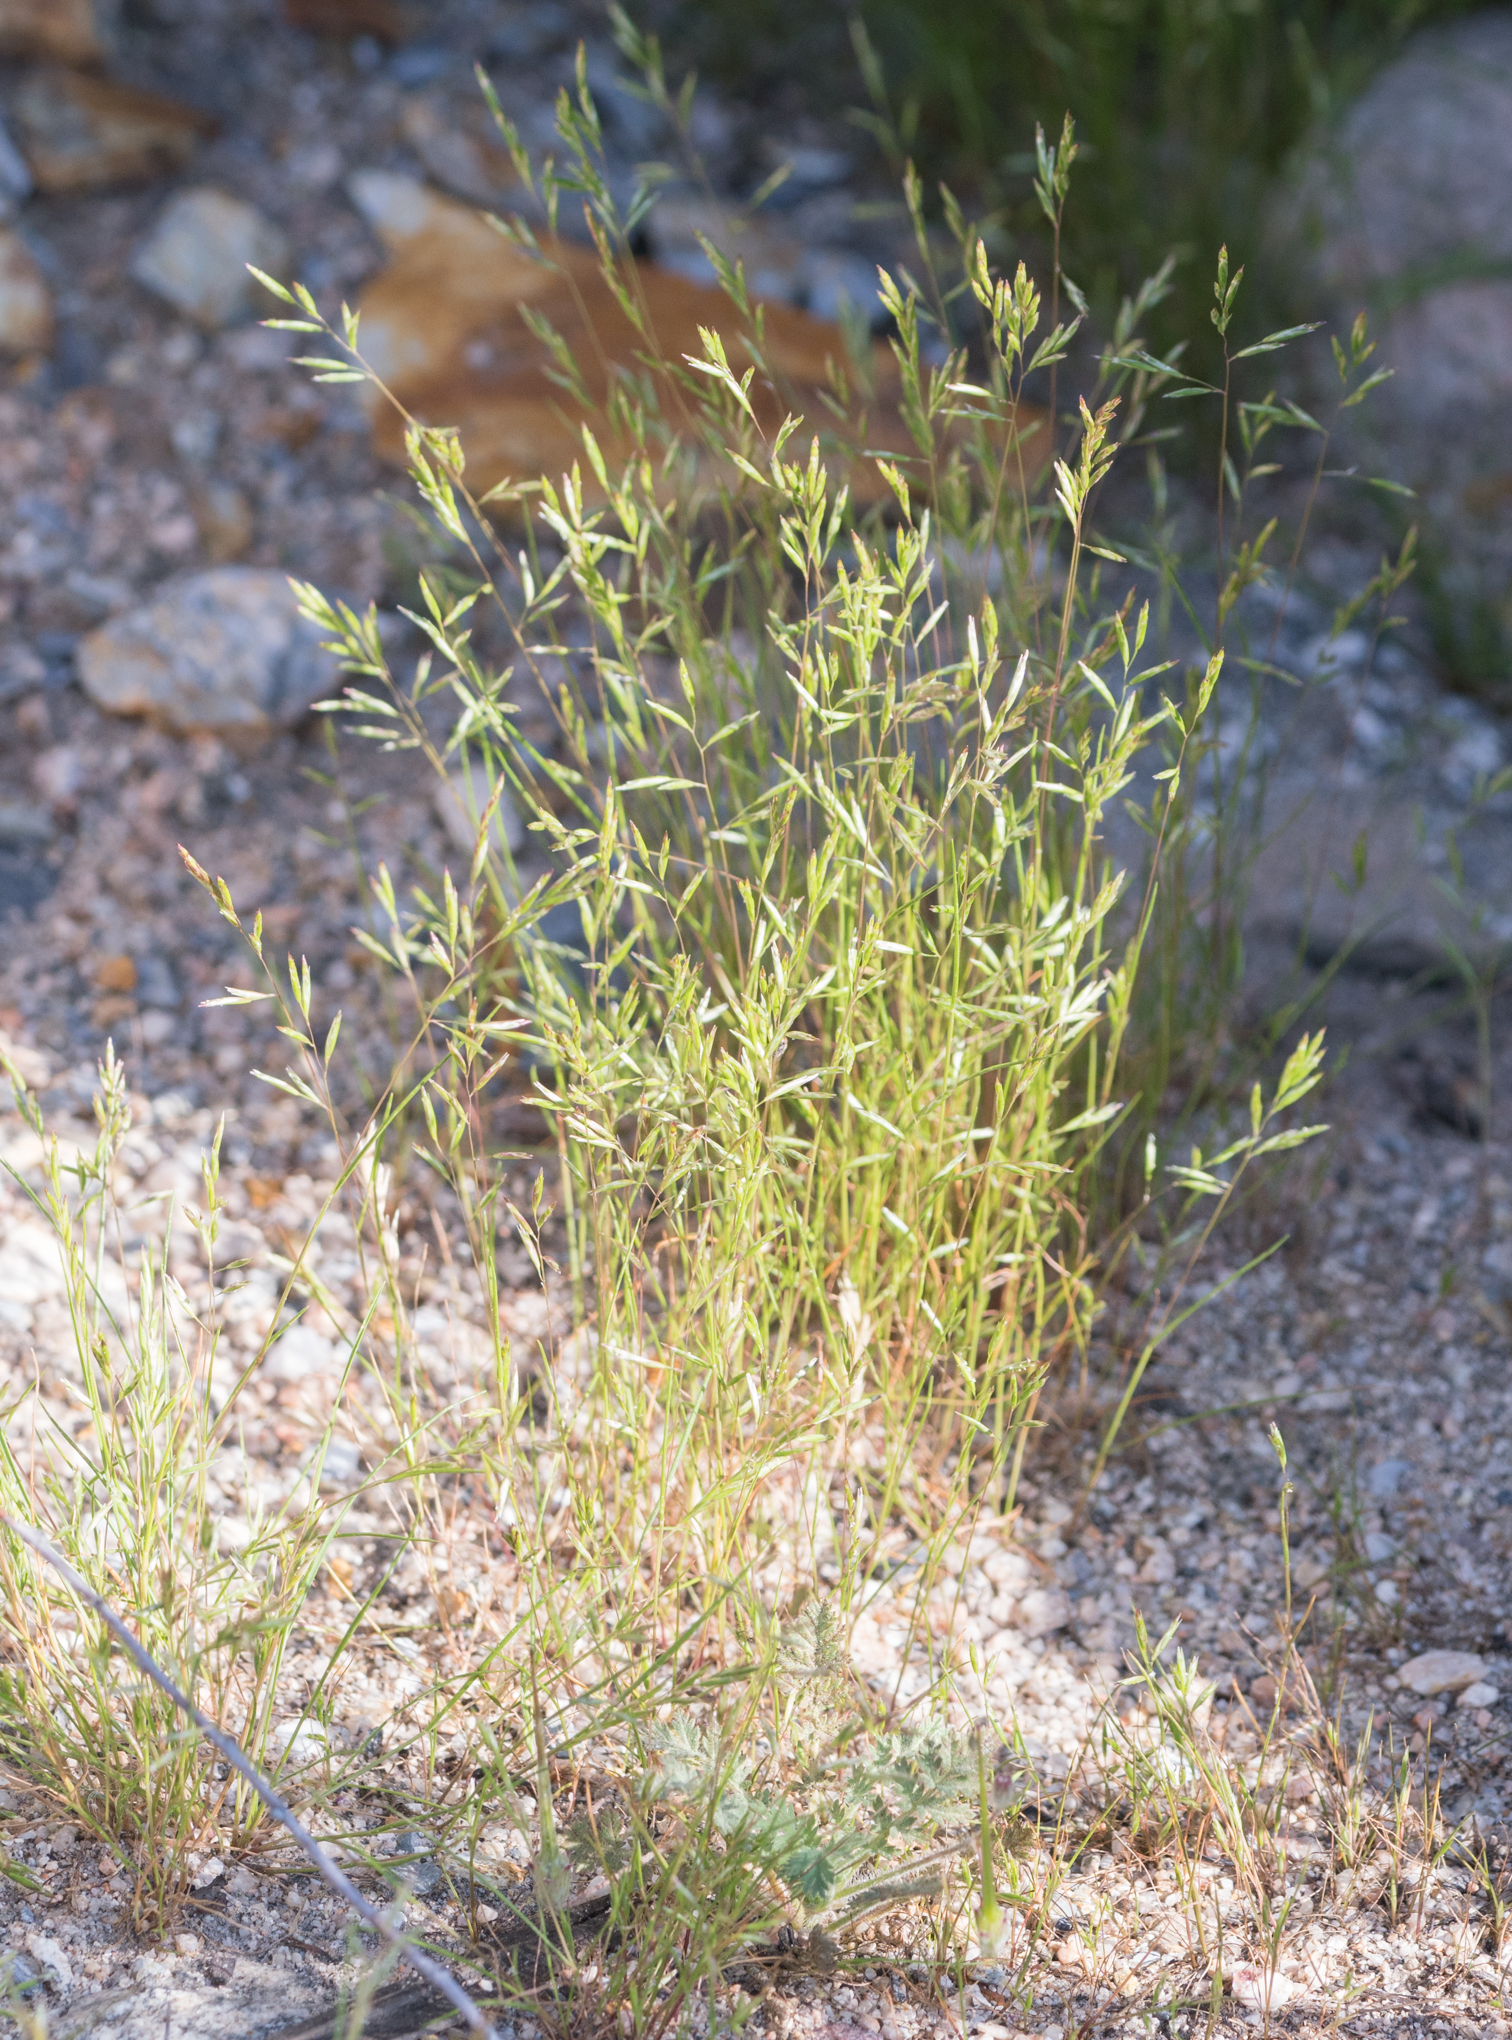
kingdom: Plantae
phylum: Tracheophyta
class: Liliopsida
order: Poales
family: Poaceae
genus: Schismus
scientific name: Schismus barbatus
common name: Kelch-grass
